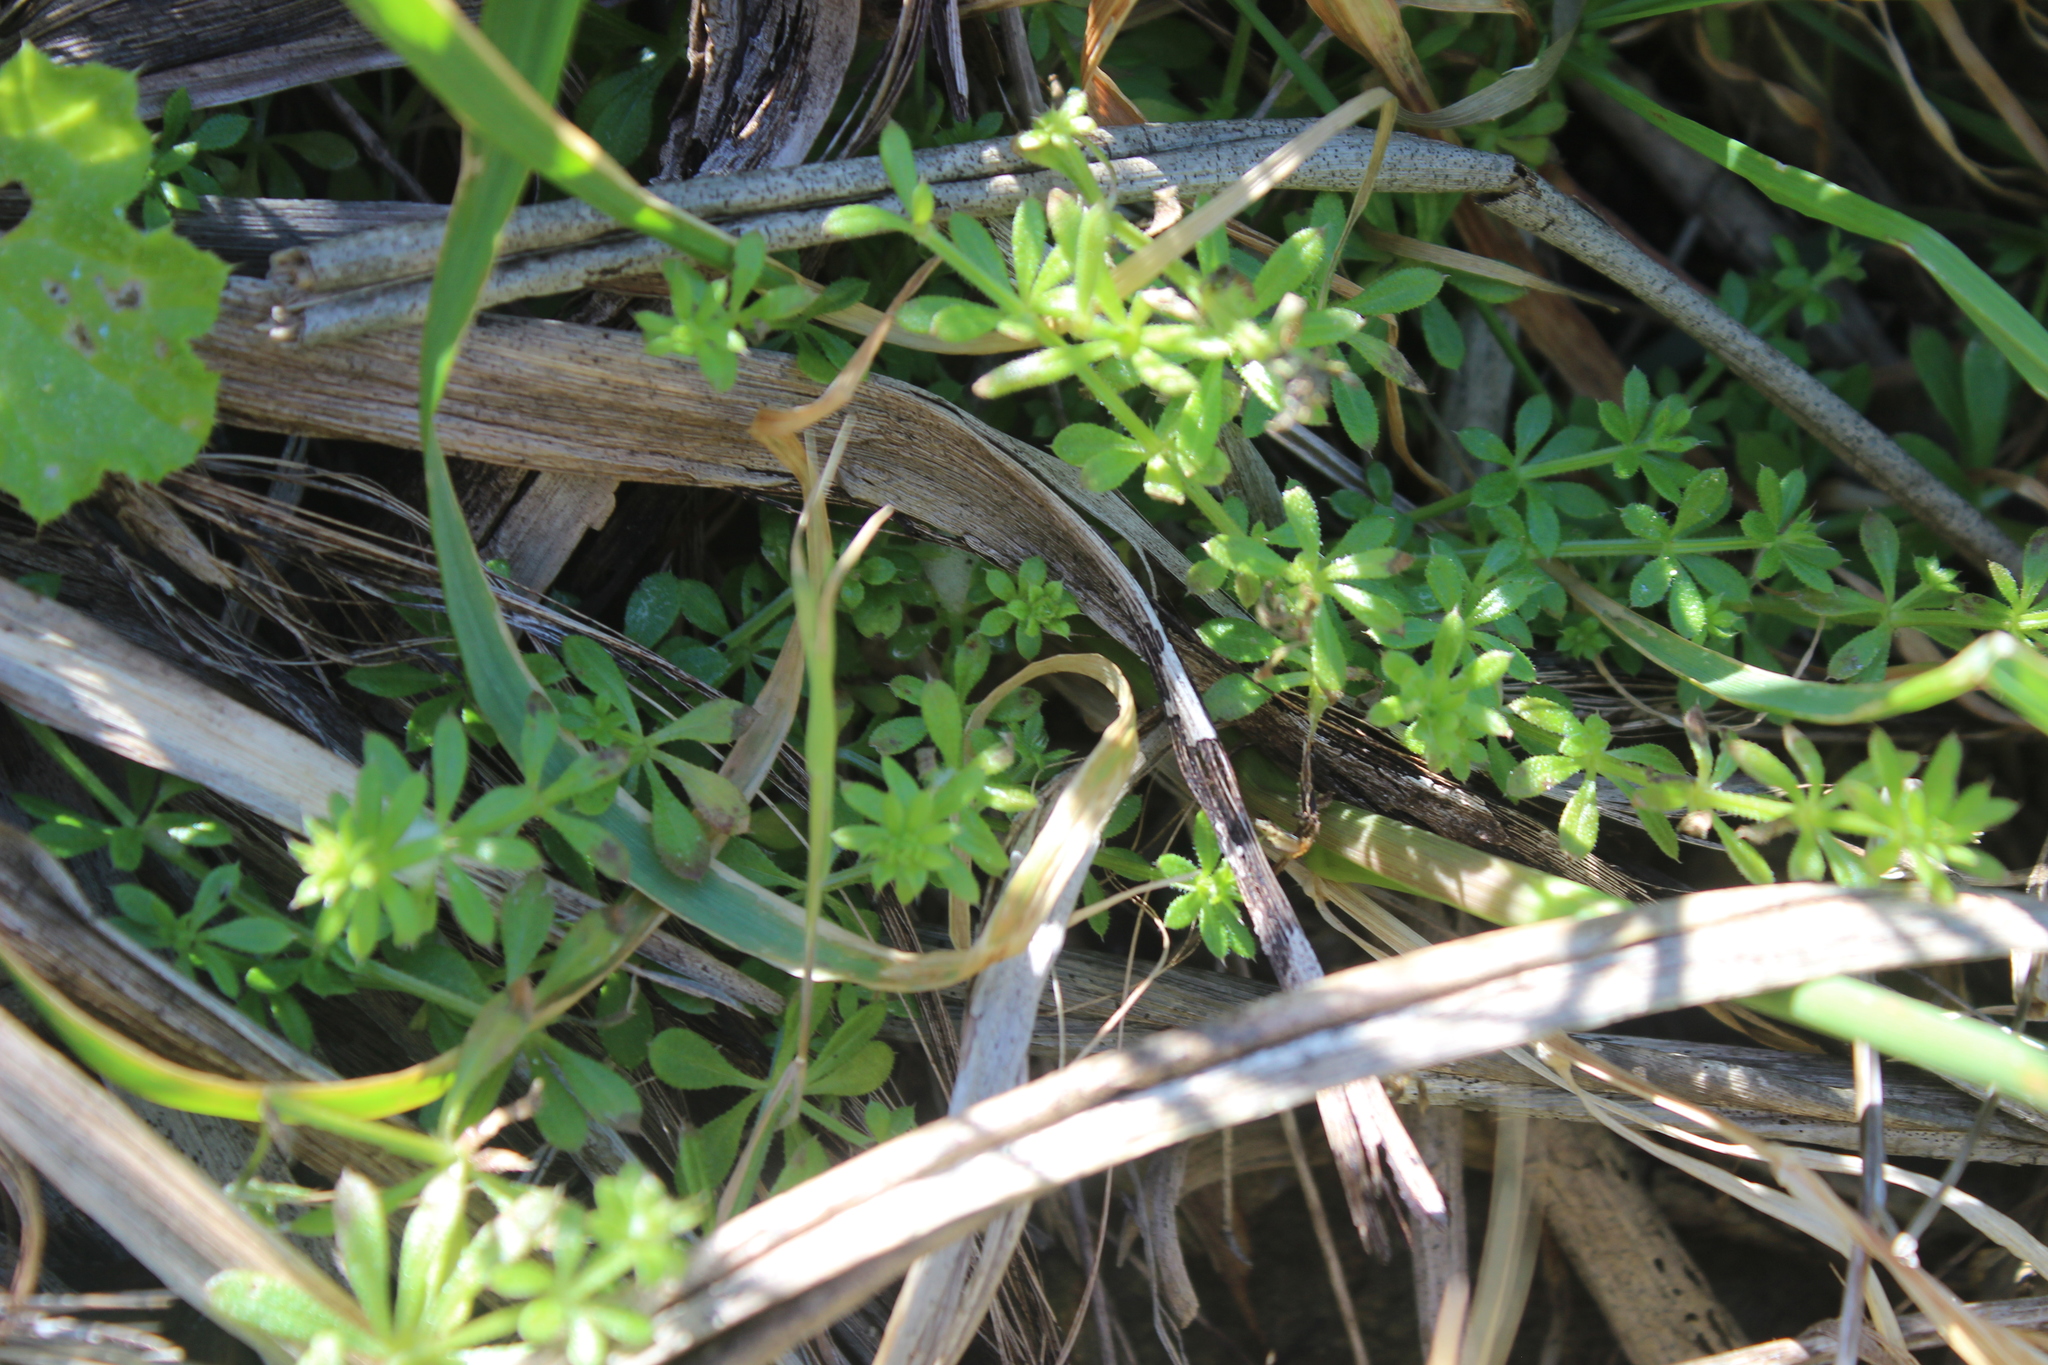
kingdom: Plantae
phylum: Tracheophyta
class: Magnoliopsida
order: Gentianales
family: Rubiaceae
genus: Galium
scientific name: Galium aparine
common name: Cleavers
